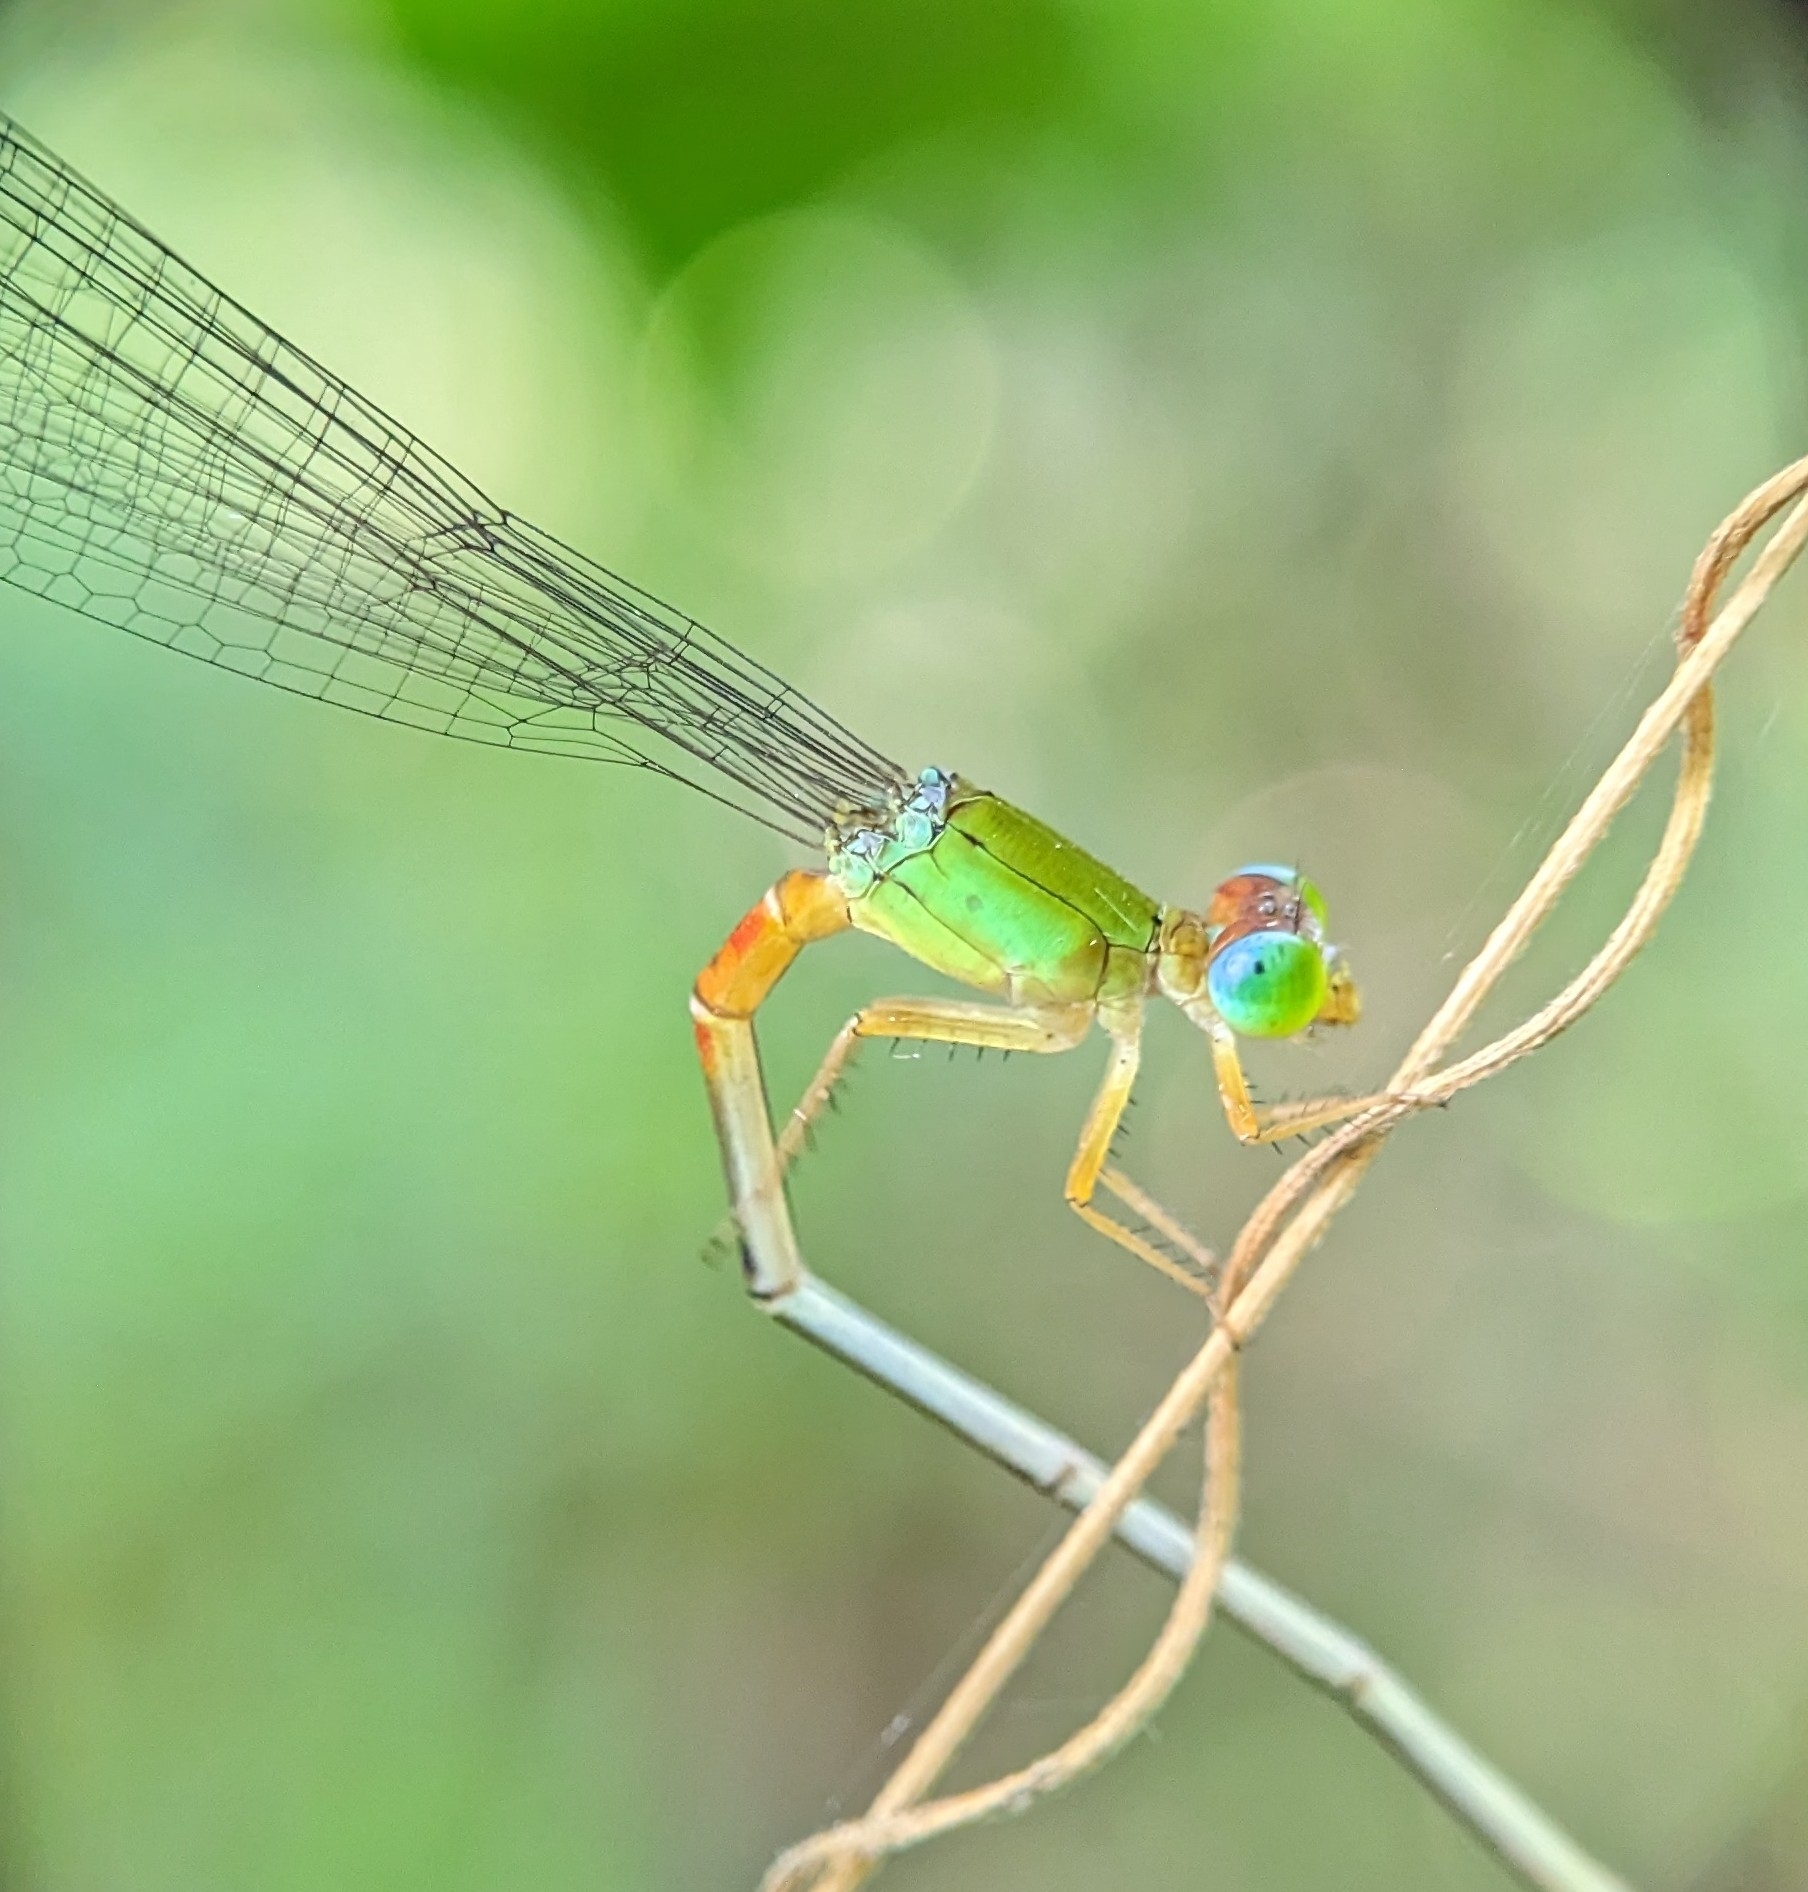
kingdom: Animalia
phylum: Arthropoda
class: Insecta
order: Odonata
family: Coenagrionidae
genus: Ceriagrion
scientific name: Ceriagrion cerinorubellum
